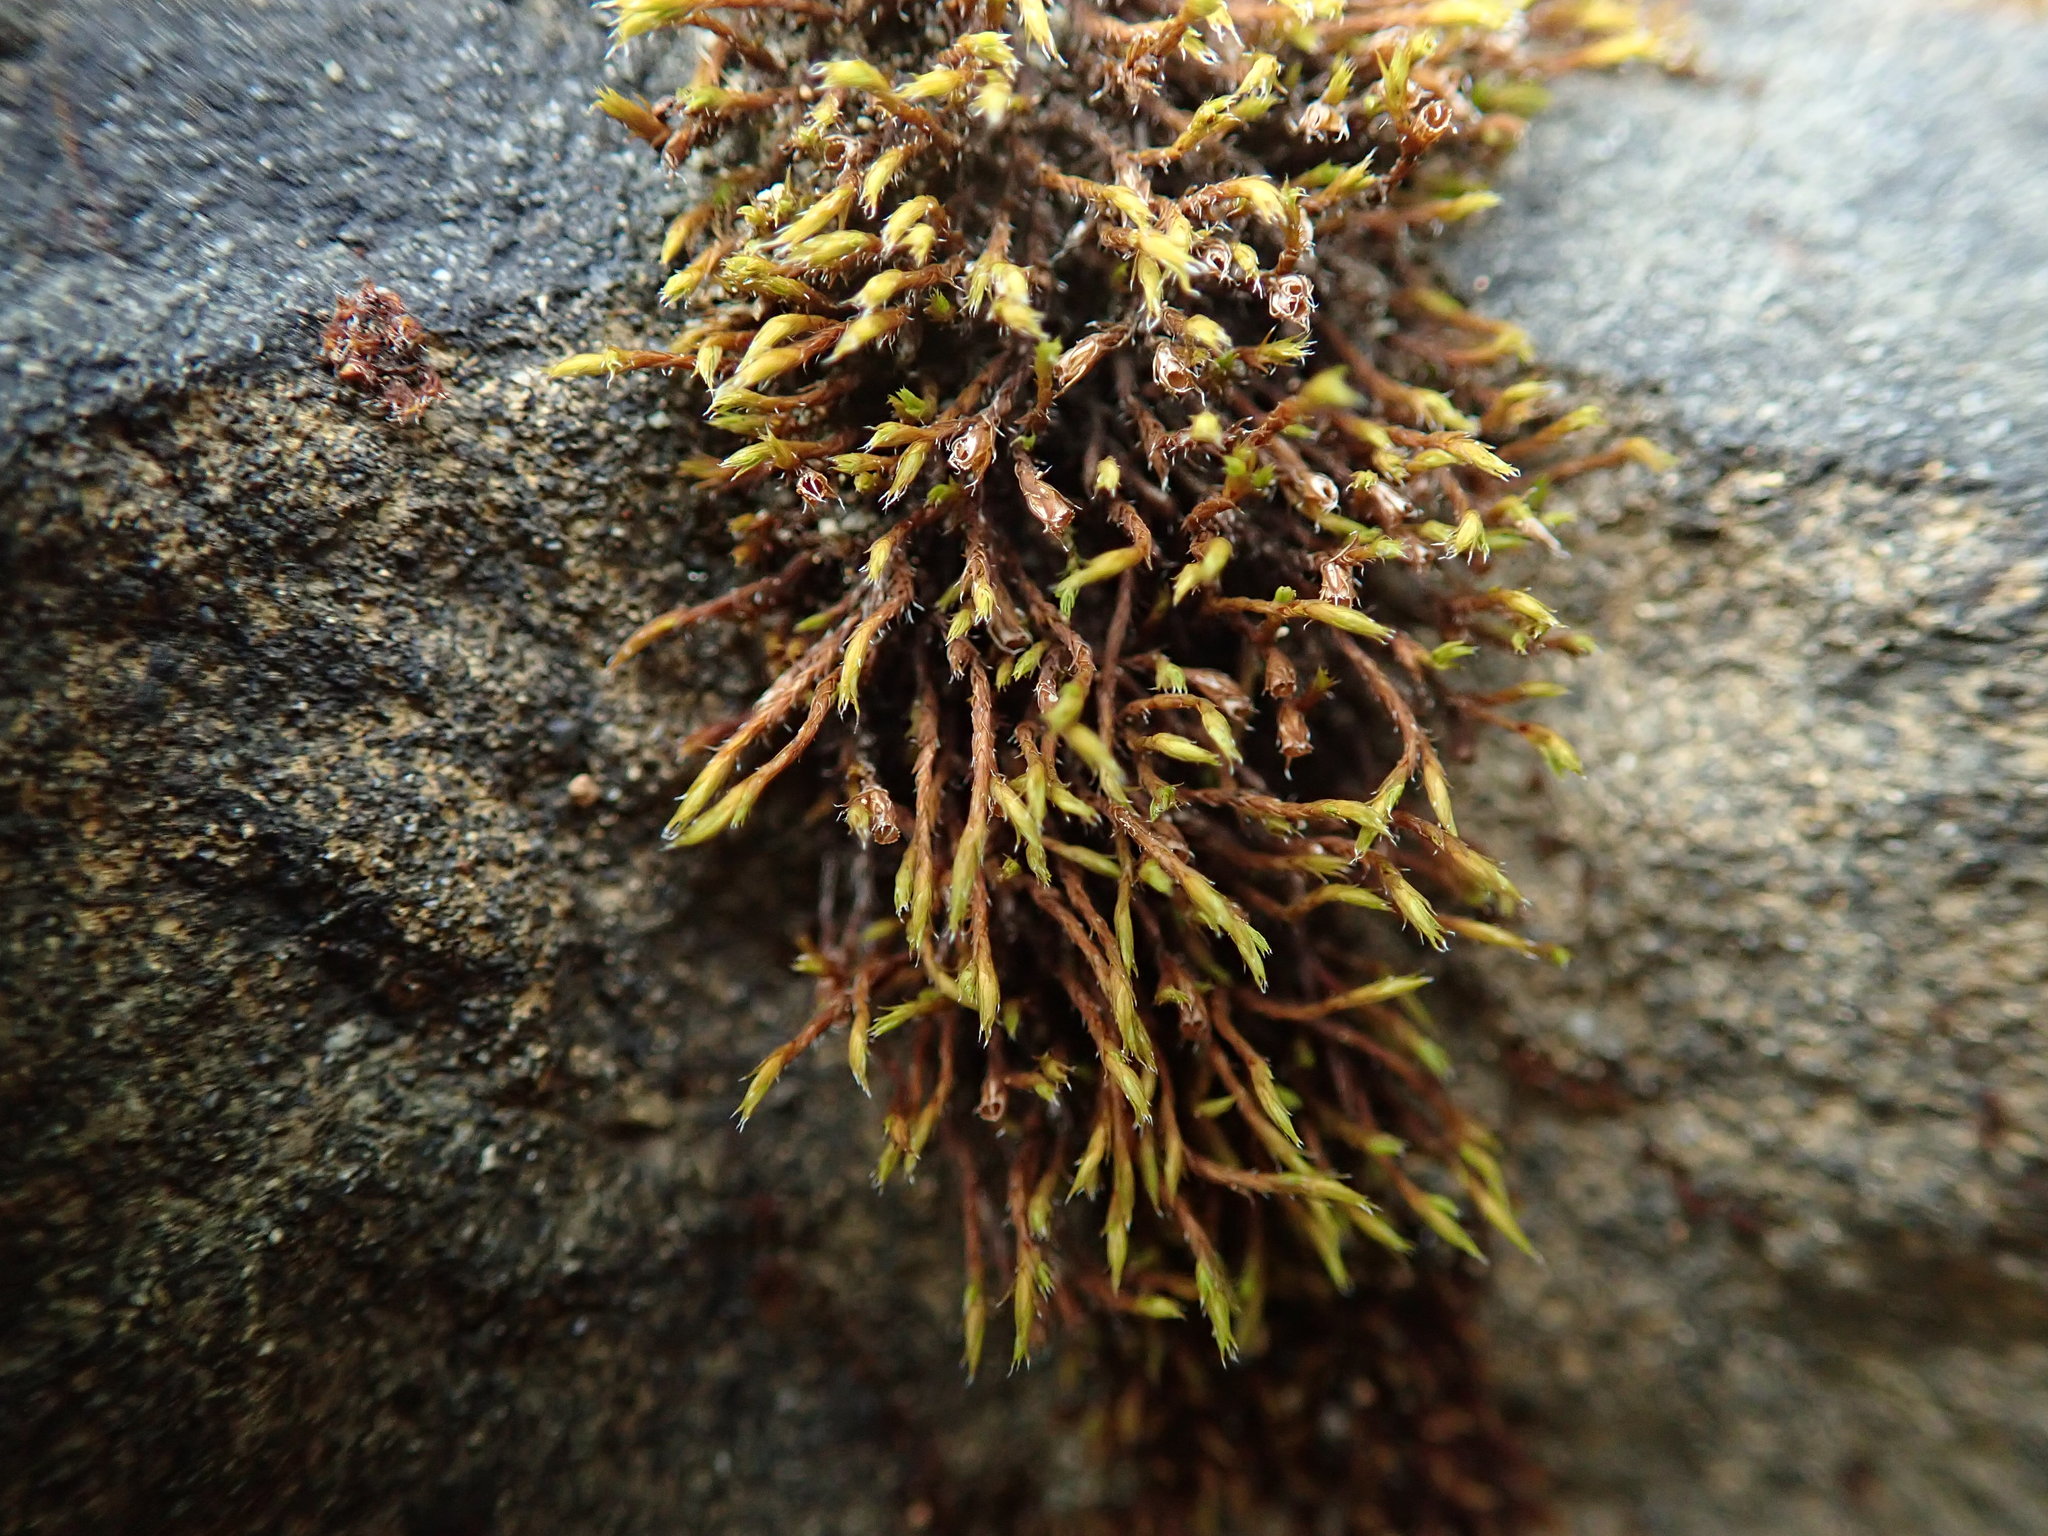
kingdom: Plantae
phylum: Bryophyta
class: Bryopsida
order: Grimmiales
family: Grimmiaceae
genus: Schistidium
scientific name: Schistidium papillosum
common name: Papillose bloom moss
